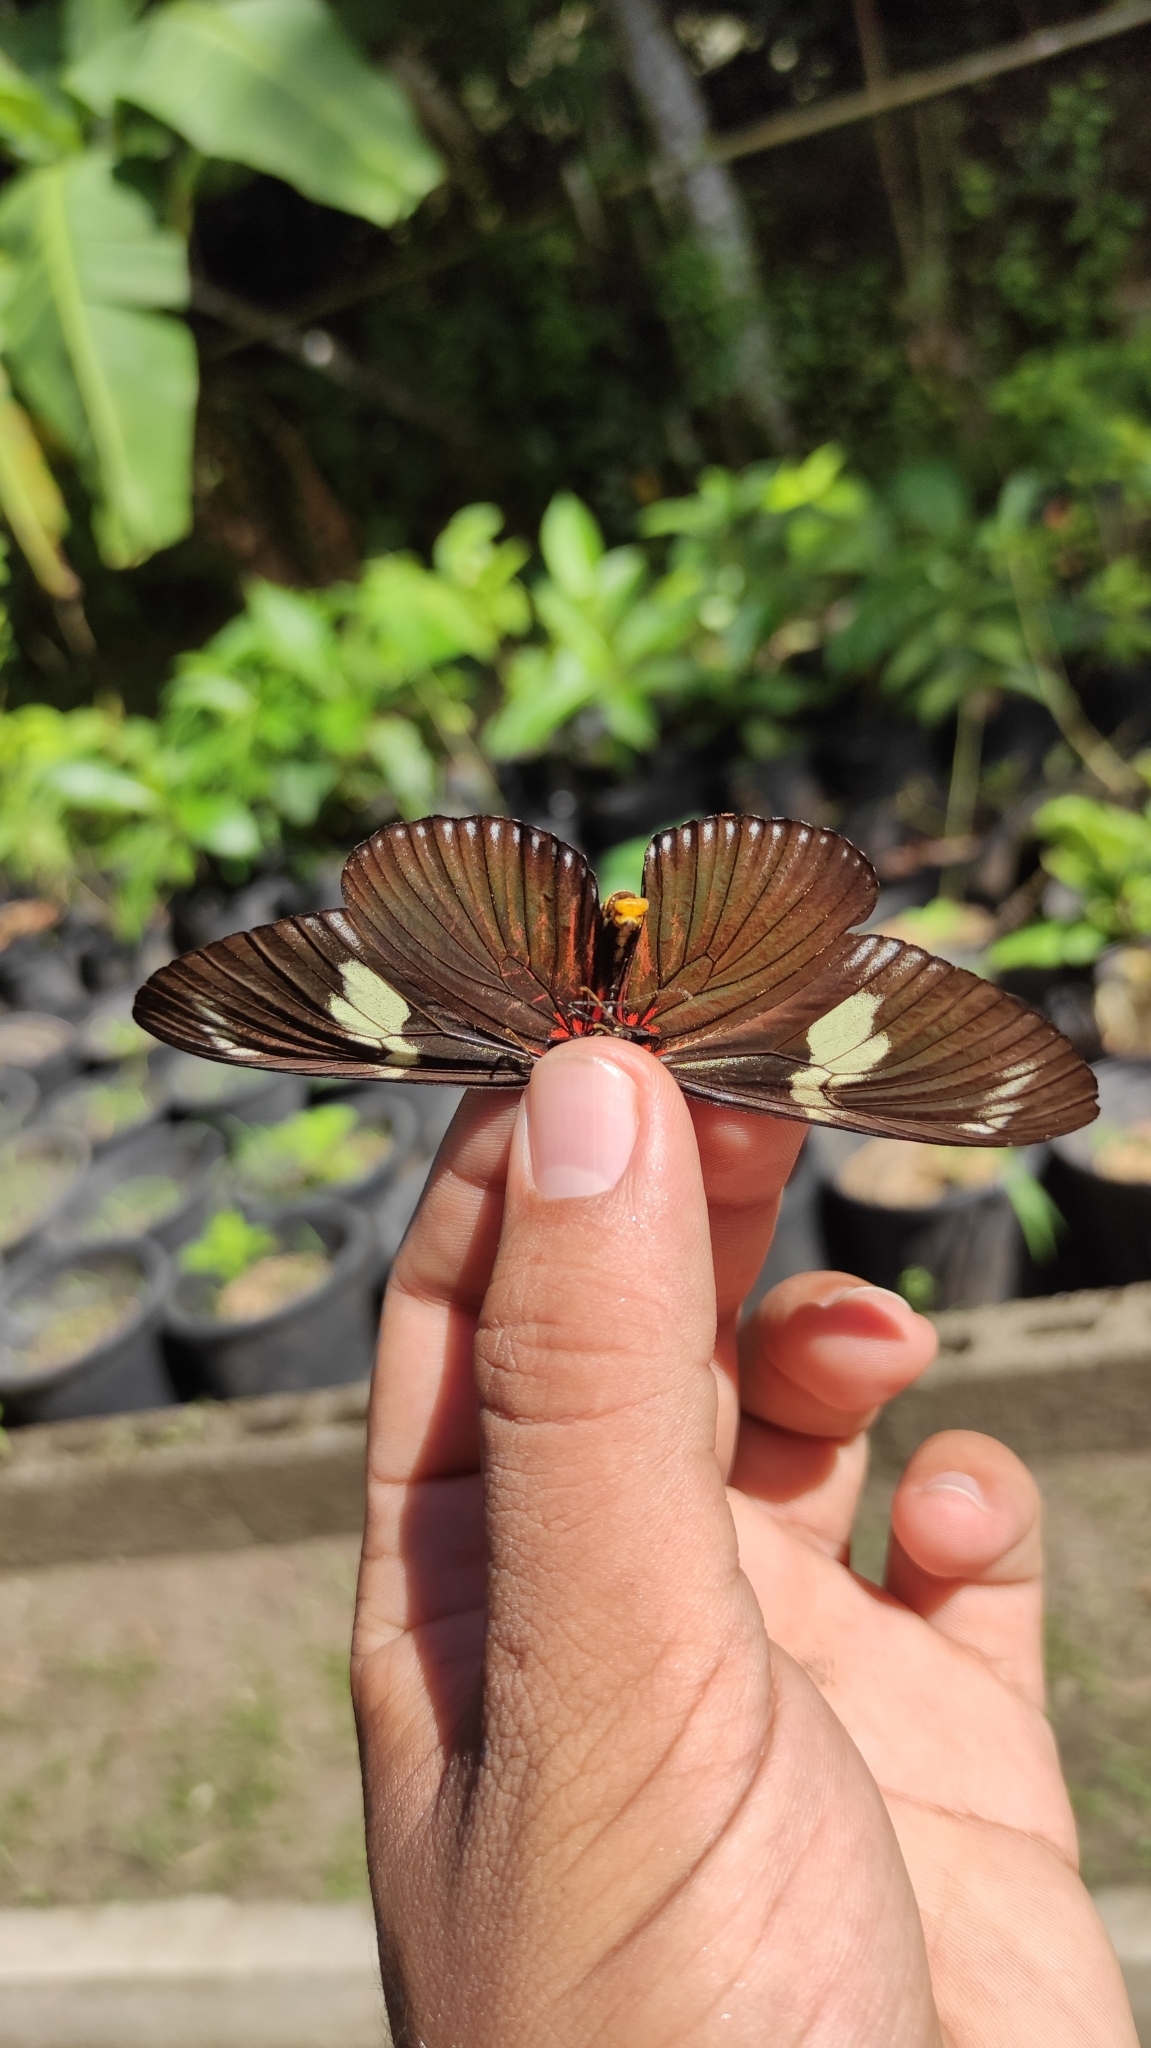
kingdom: Animalia
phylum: Arthropoda
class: Insecta
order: Lepidoptera
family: Nymphalidae
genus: Heliconius
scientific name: Heliconius doris
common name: Doris longwing
